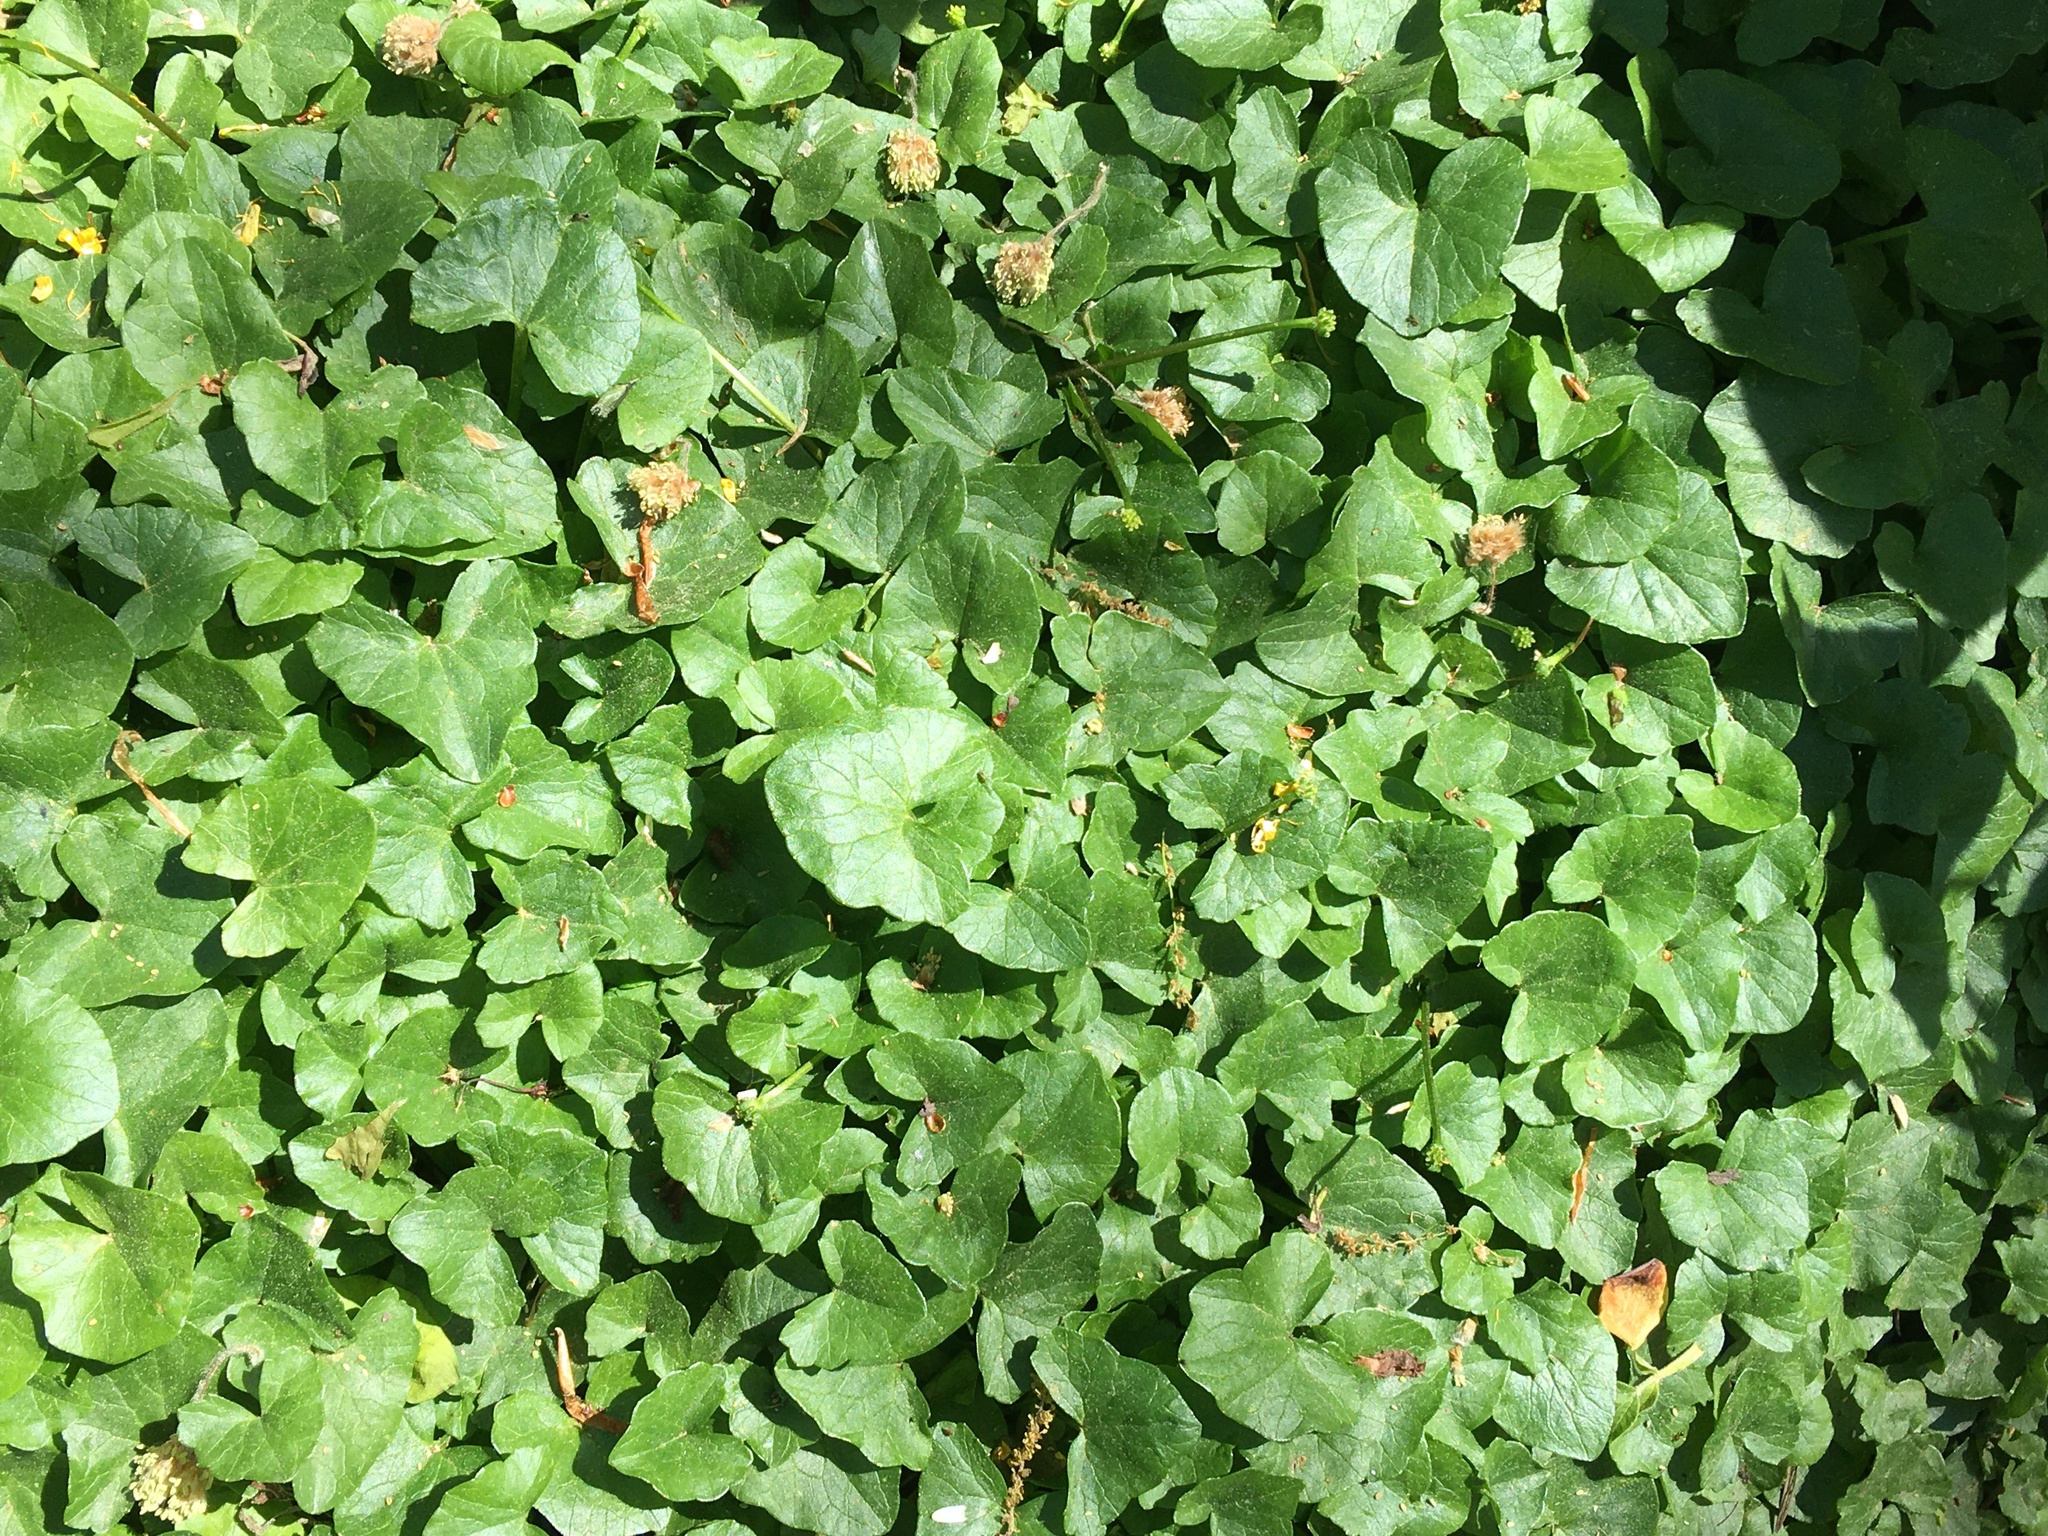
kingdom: Plantae
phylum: Tracheophyta
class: Magnoliopsida
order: Ranunculales
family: Ranunculaceae
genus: Ficaria
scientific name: Ficaria verna
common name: Lesser celandine
